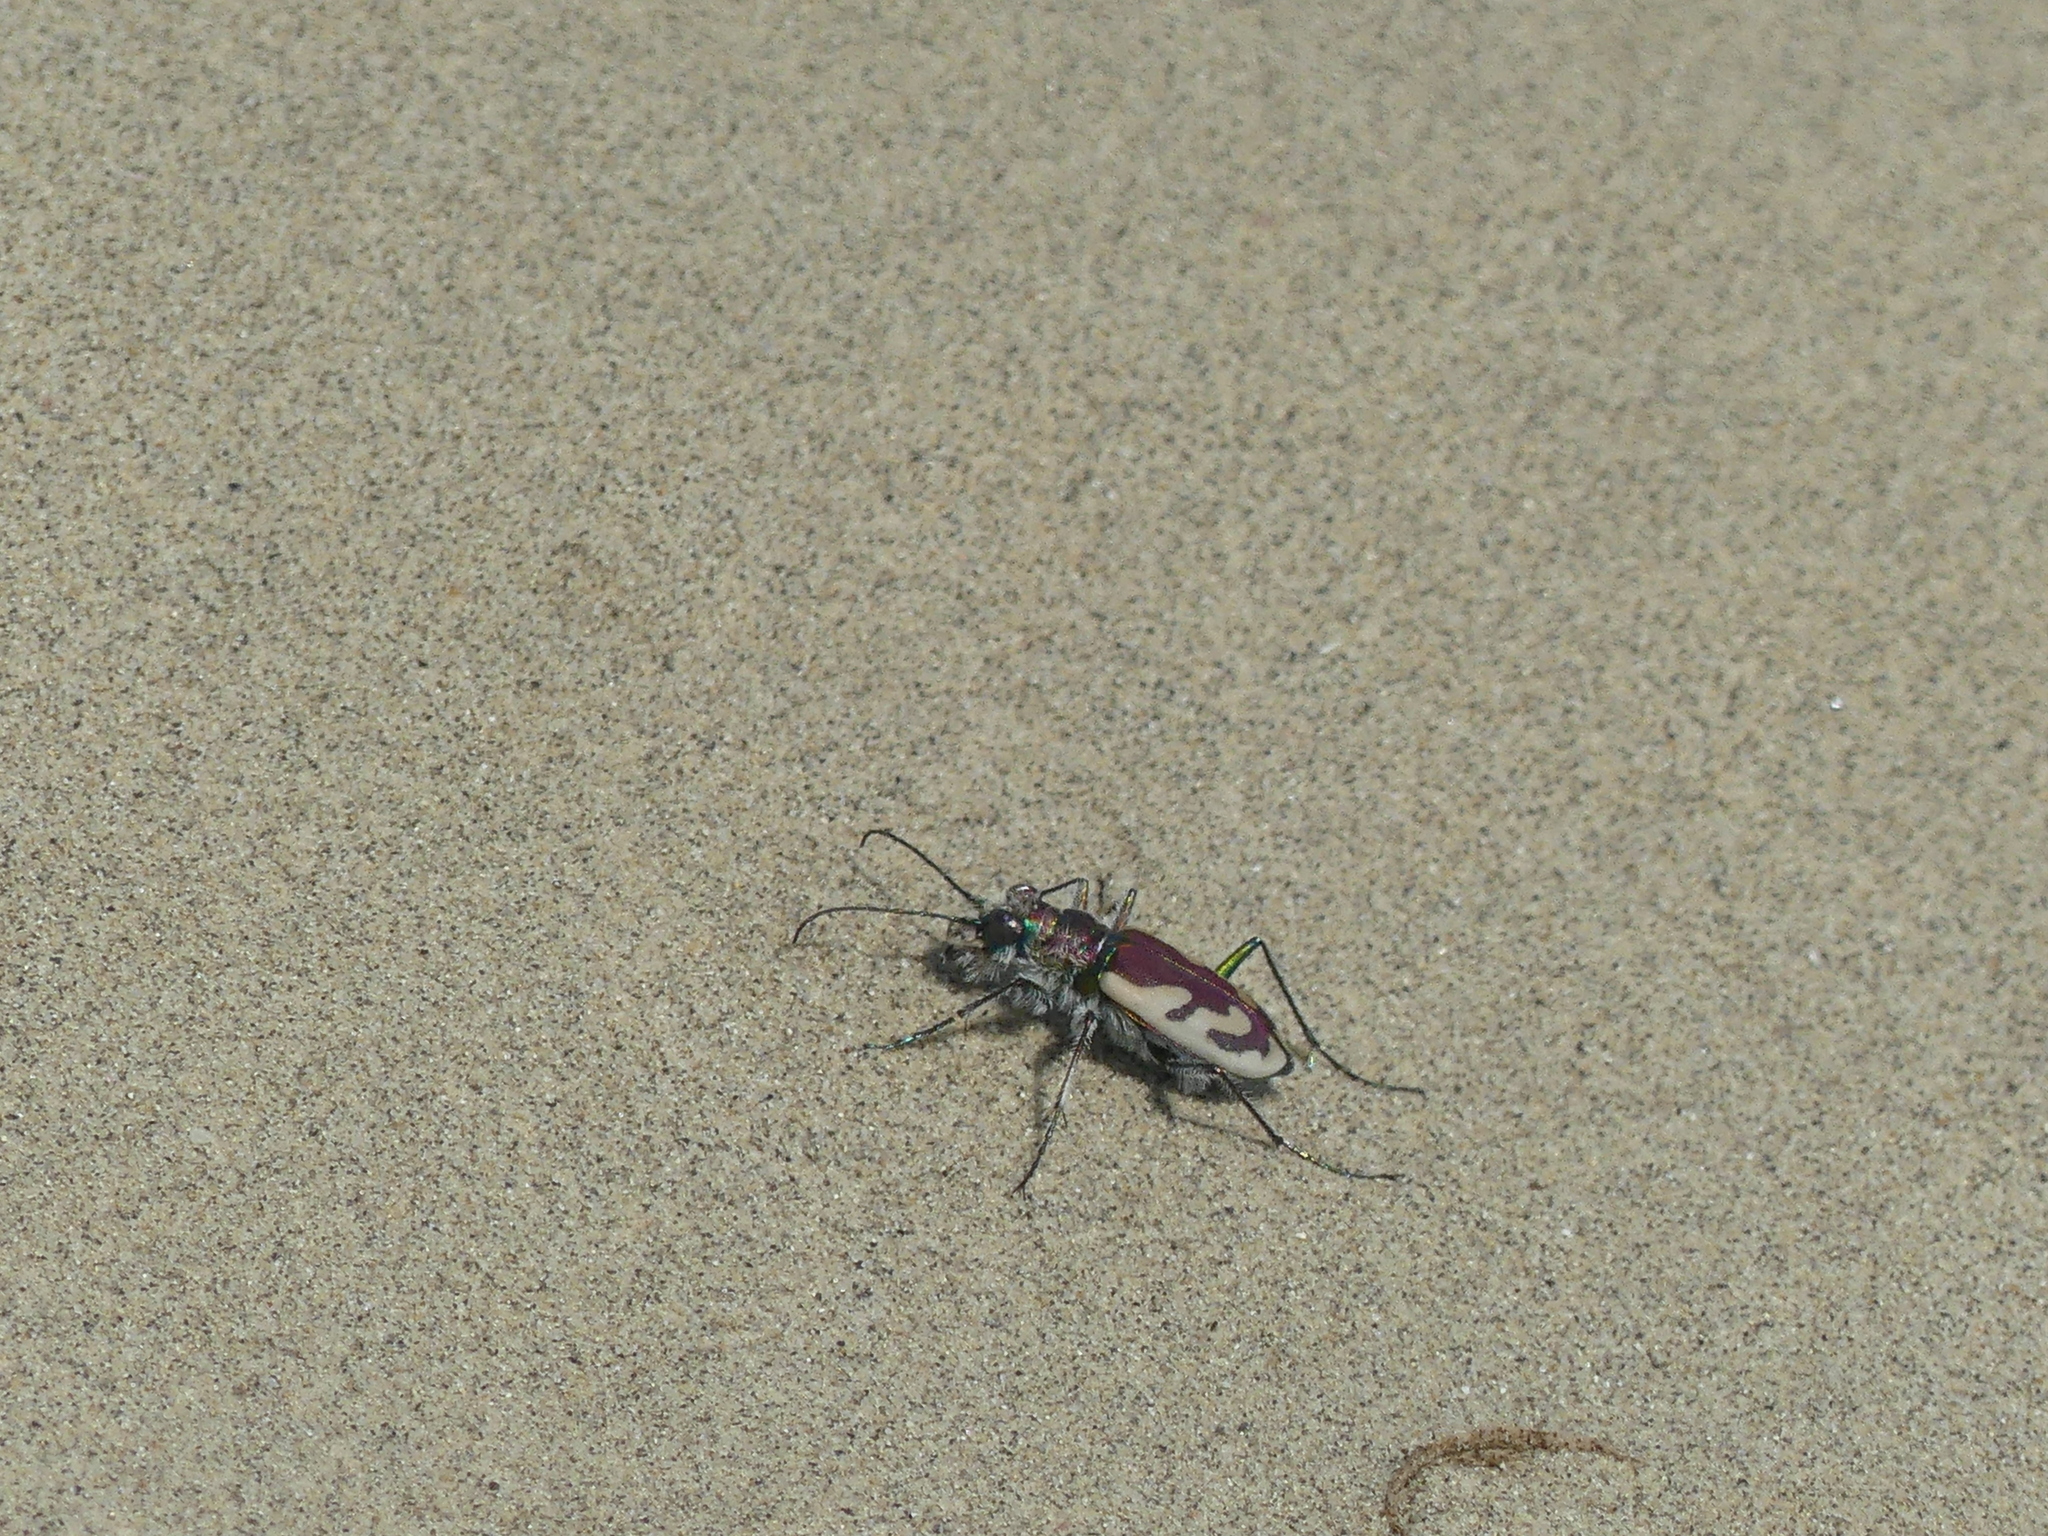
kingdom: Animalia
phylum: Arthropoda
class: Insecta
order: Coleoptera
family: Carabidae
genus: Cicindela
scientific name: Cicindela lengi
